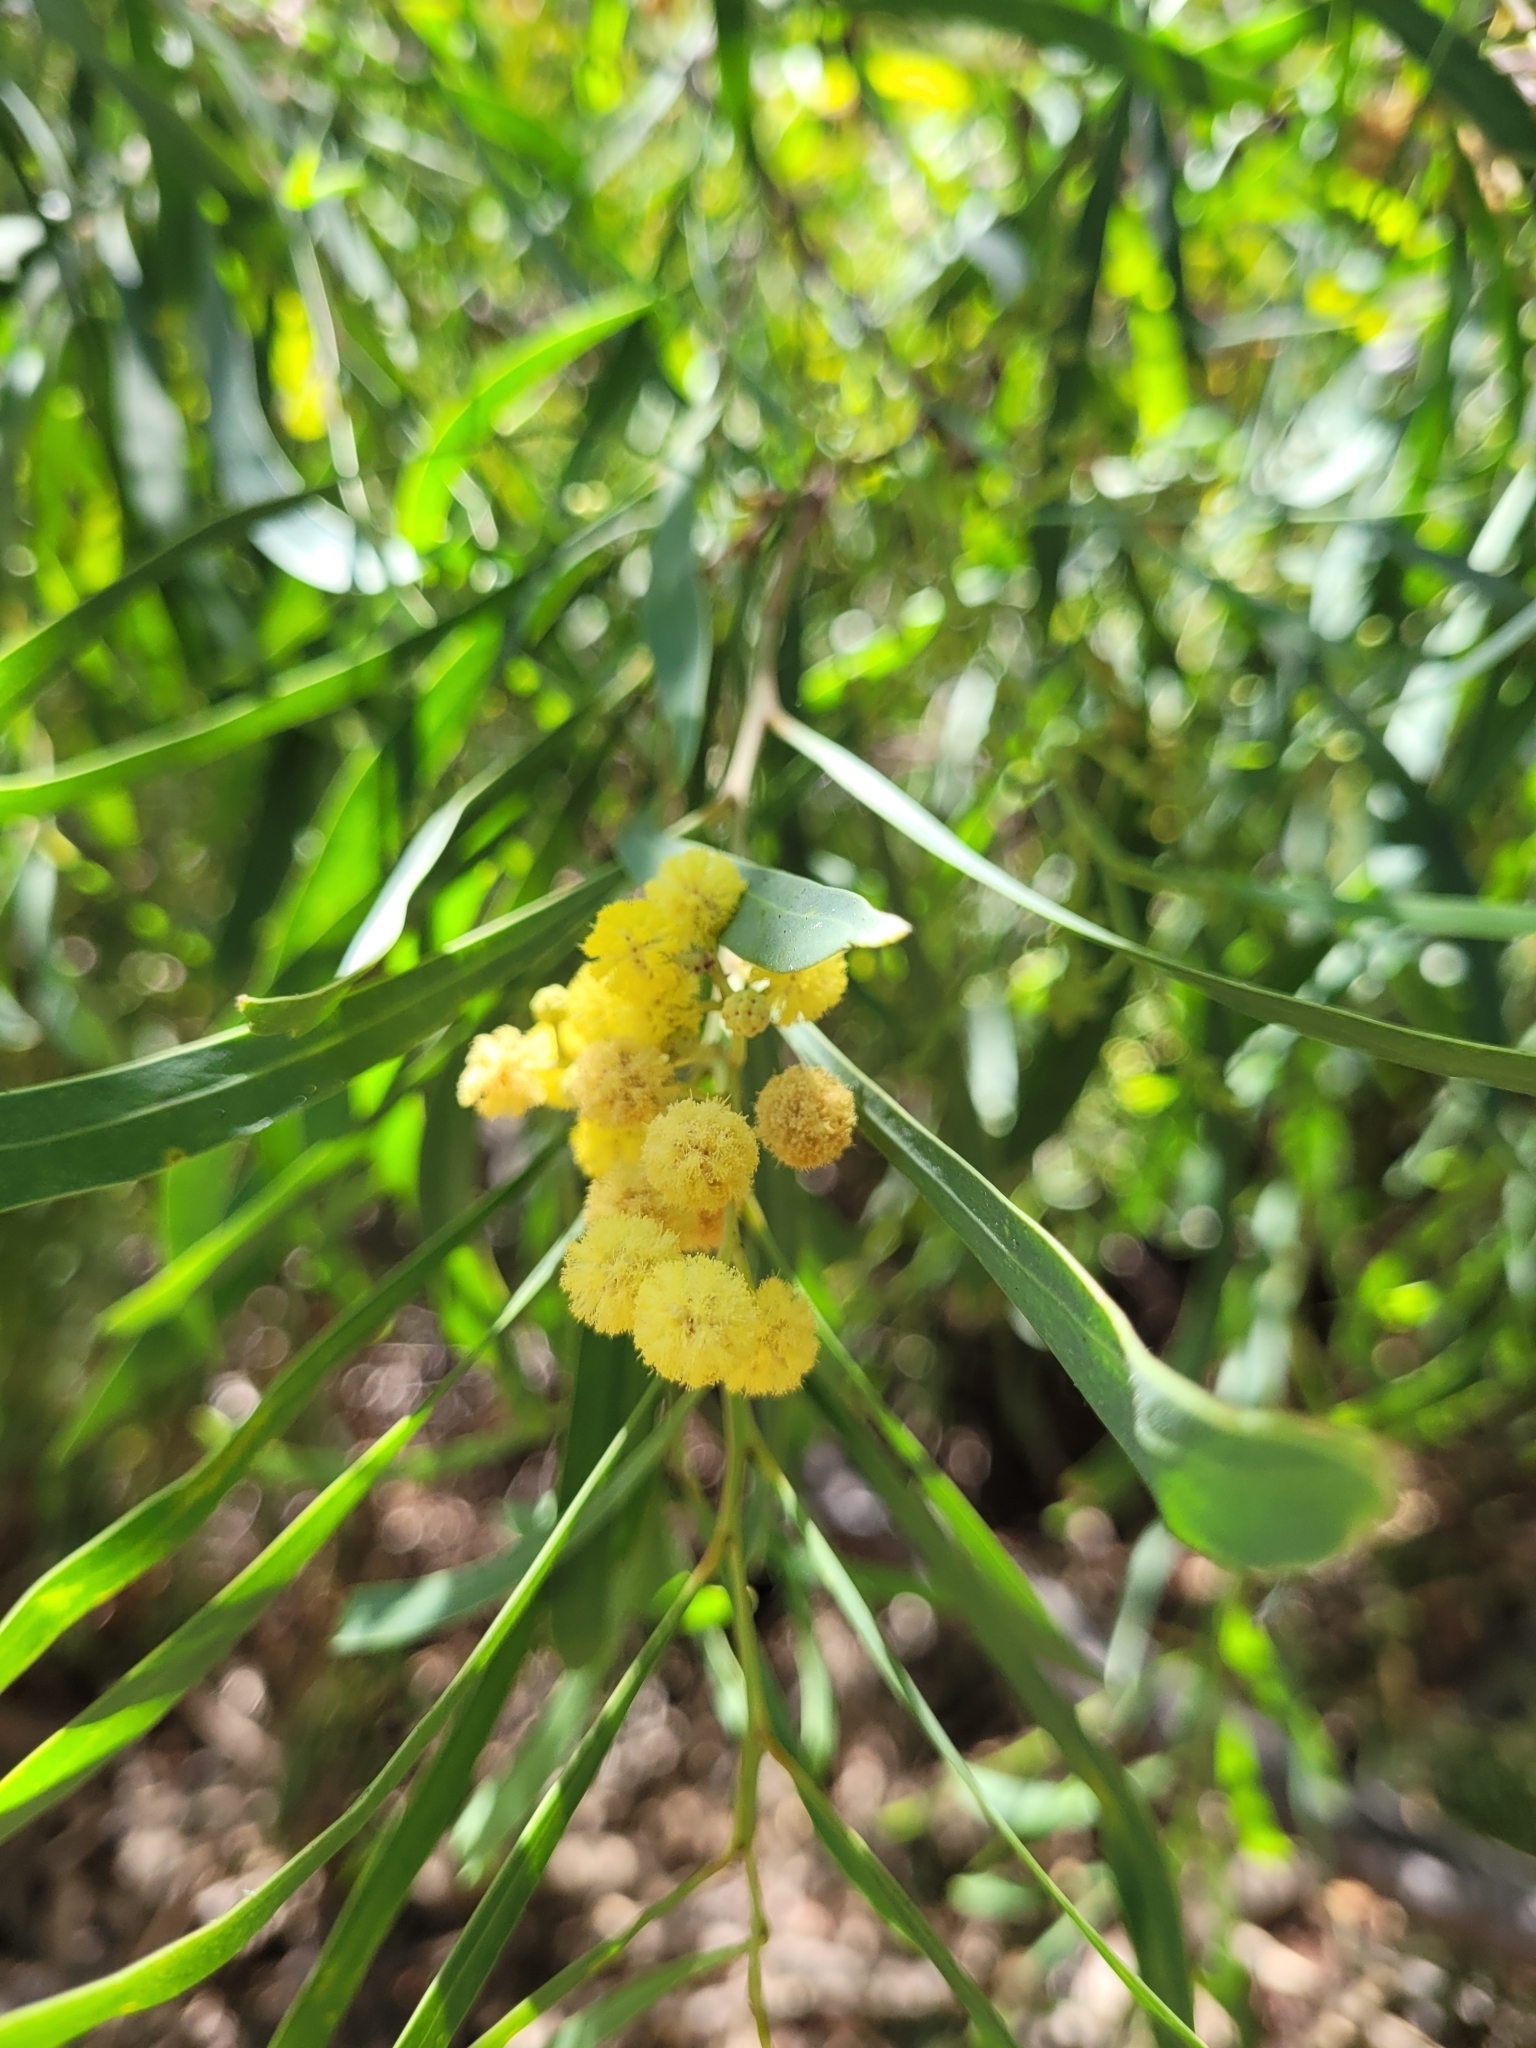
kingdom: Plantae
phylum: Tracheophyta
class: Magnoliopsida
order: Fabales
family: Fabaceae
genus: Acacia
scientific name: Acacia retinodes
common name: Silver wattle
